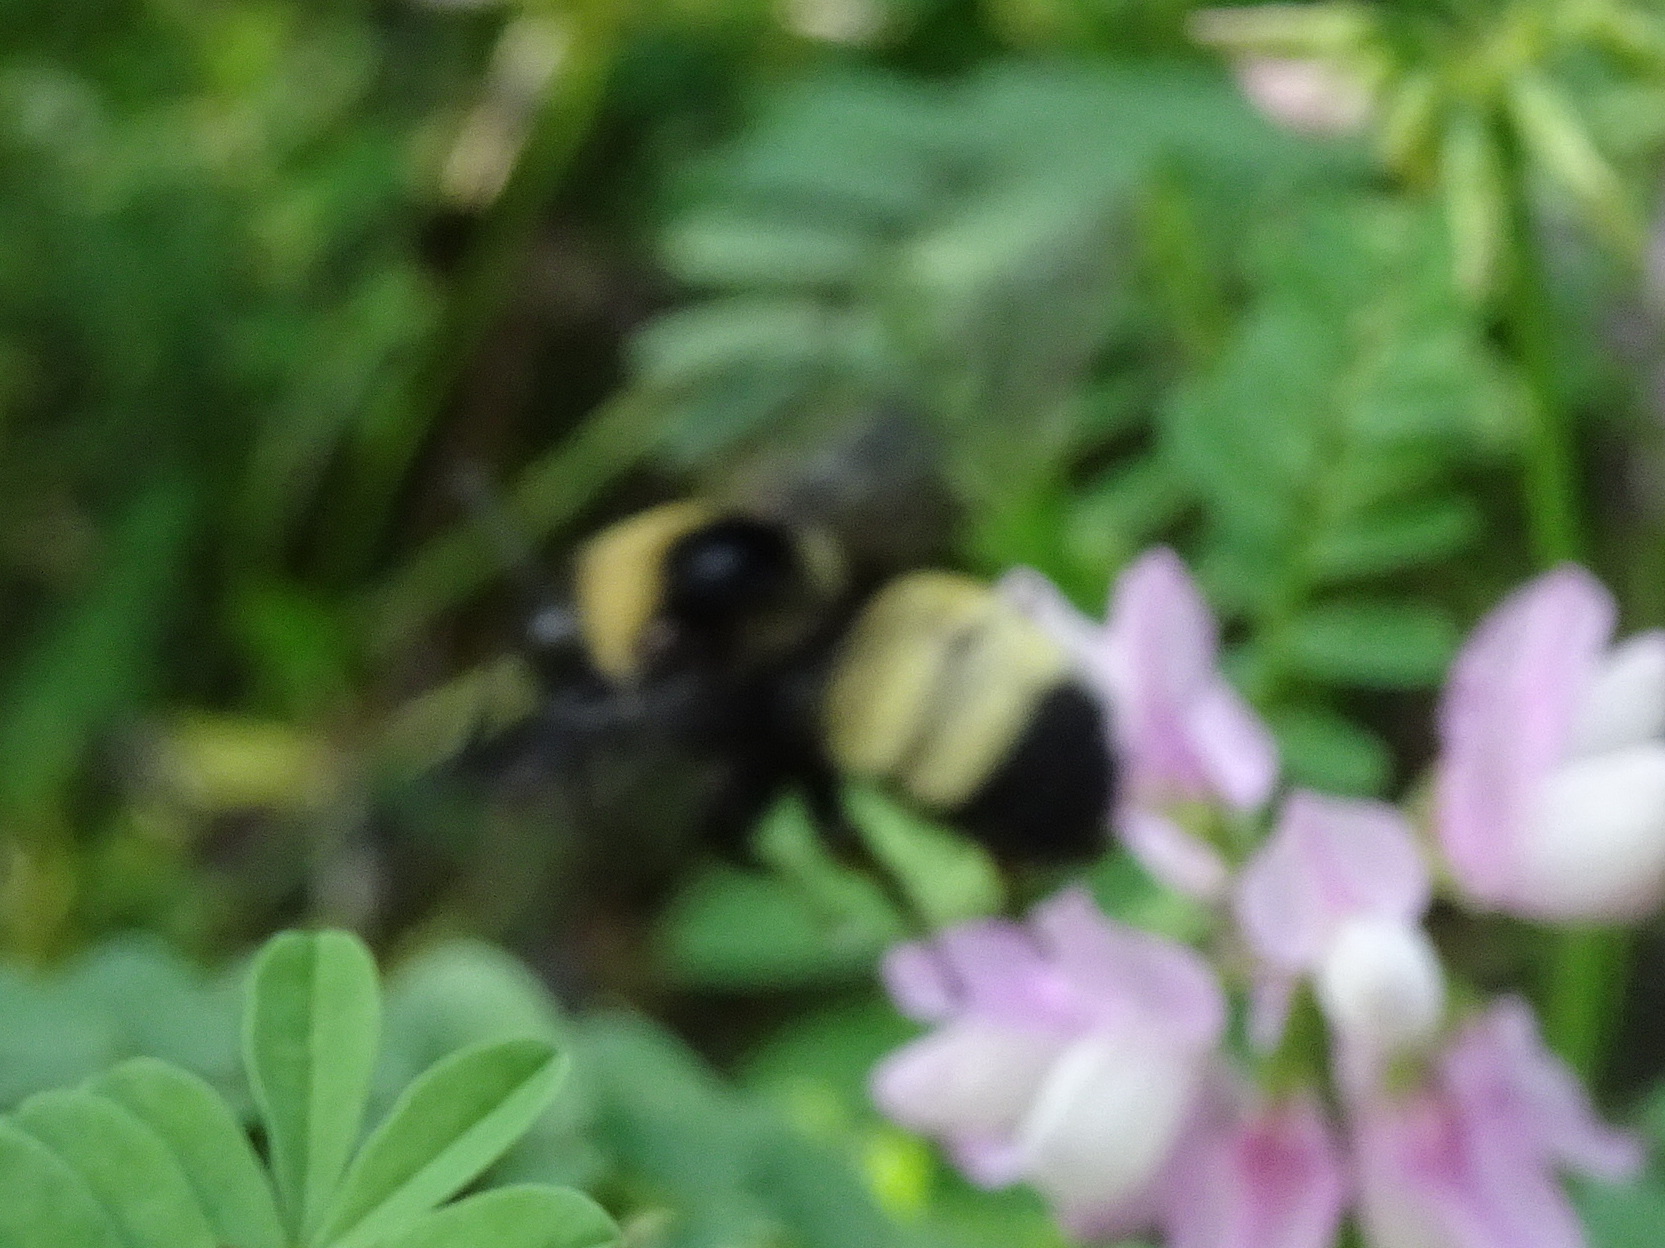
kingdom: Animalia
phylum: Arthropoda
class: Insecta
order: Hymenoptera
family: Apidae
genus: Bombus
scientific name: Bombus auricomus
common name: Black and gold bumble bee
